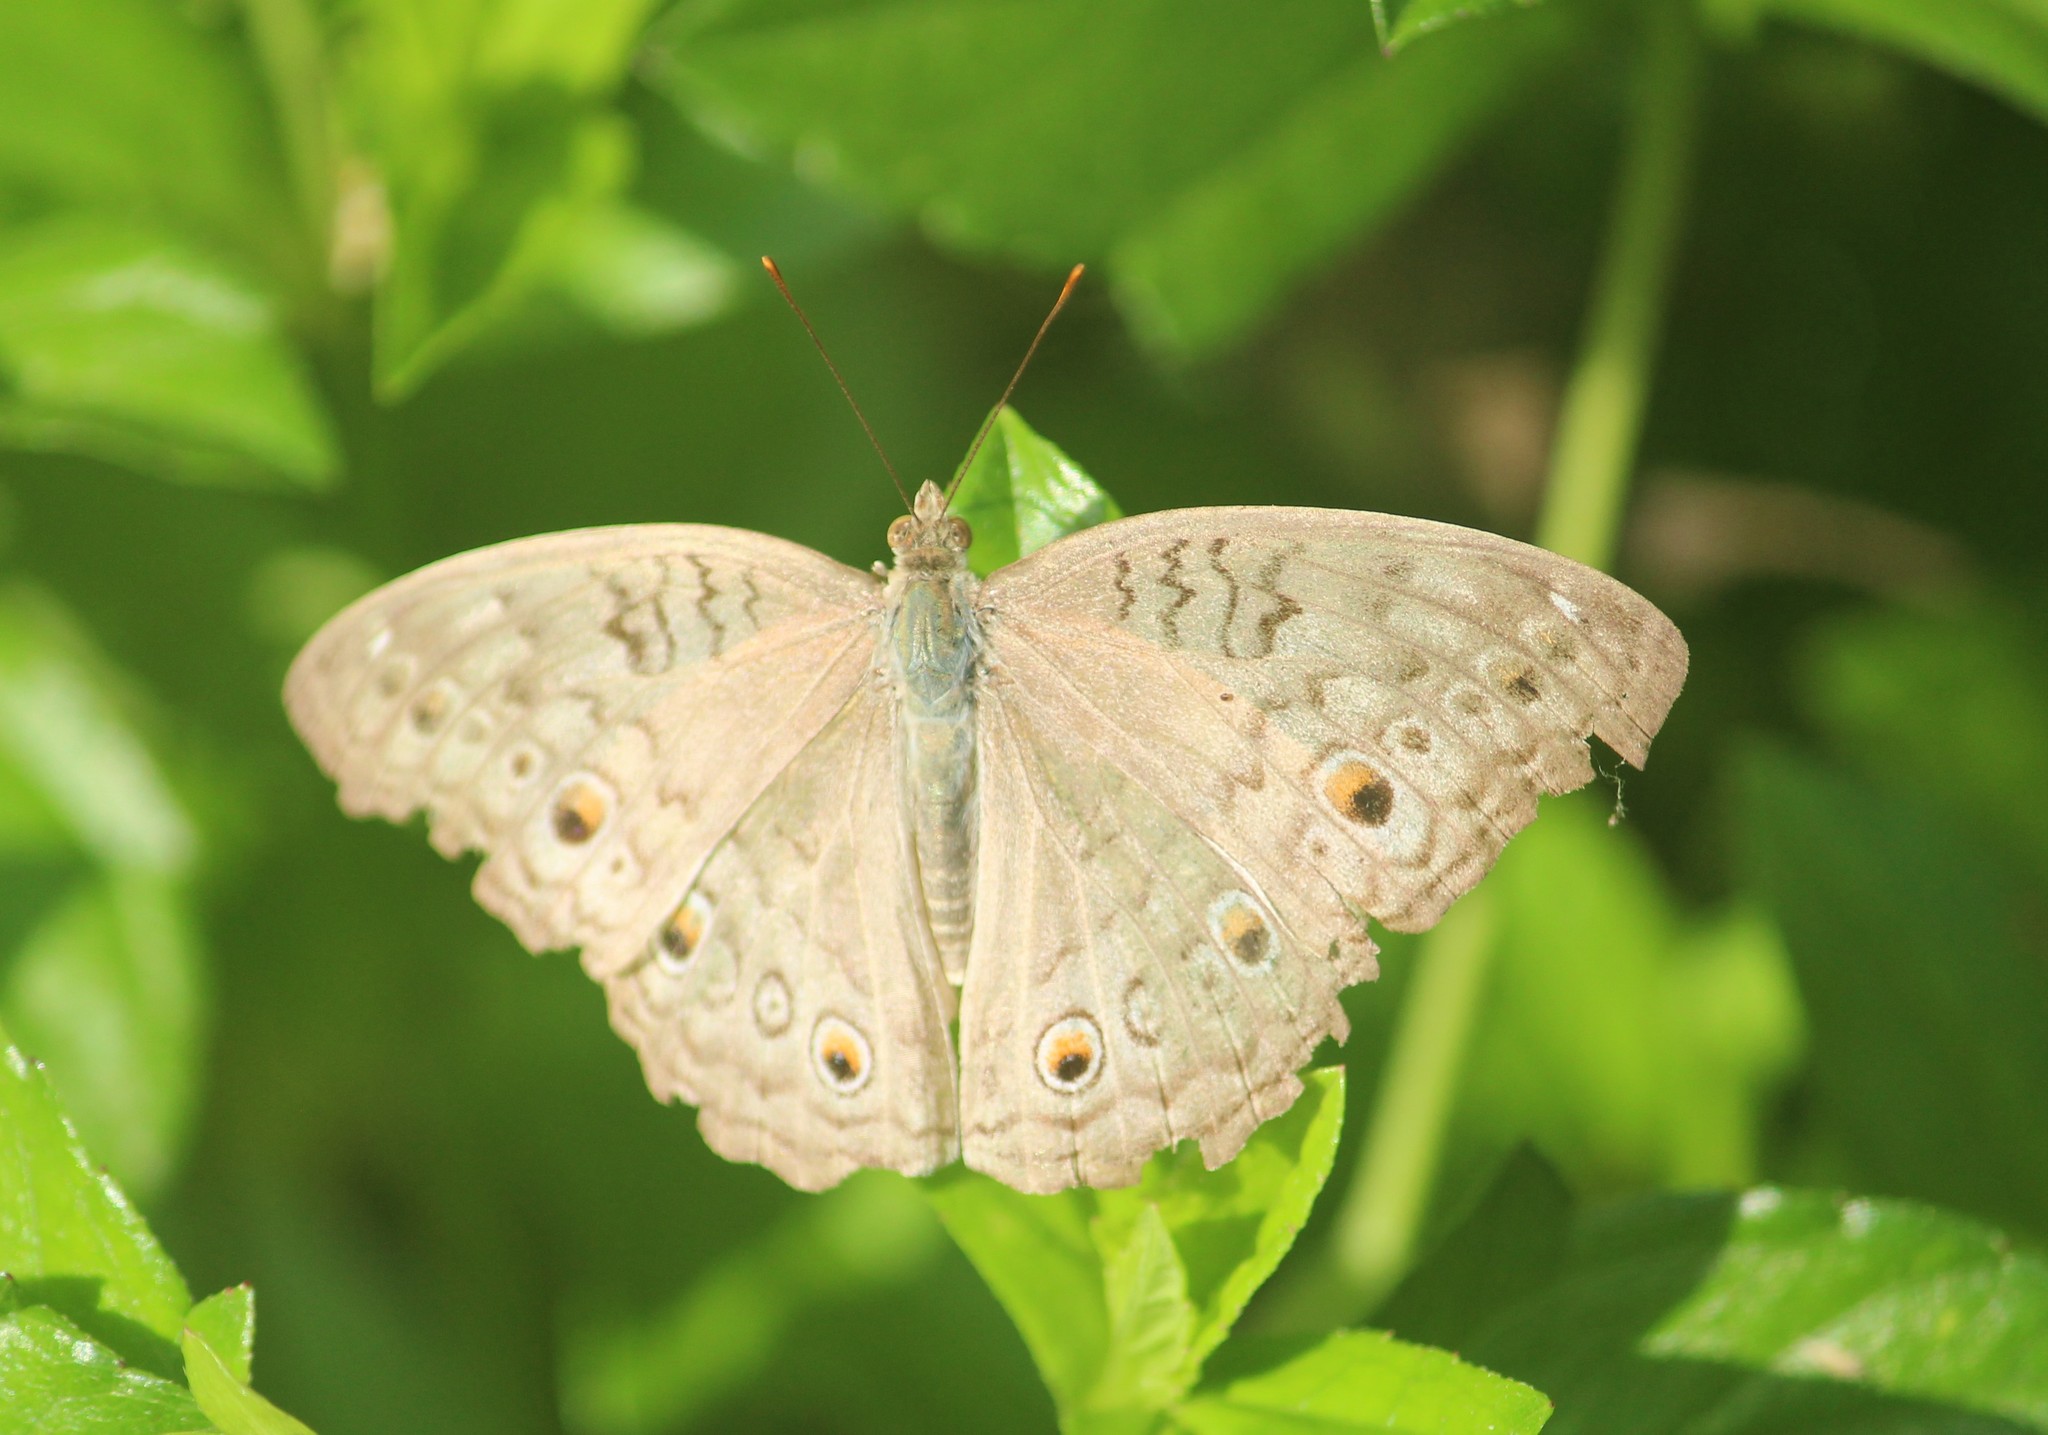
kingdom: Animalia
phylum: Arthropoda
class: Insecta
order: Lepidoptera
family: Nymphalidae
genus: Junonia
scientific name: Junonia atlites
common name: Grey pansy
